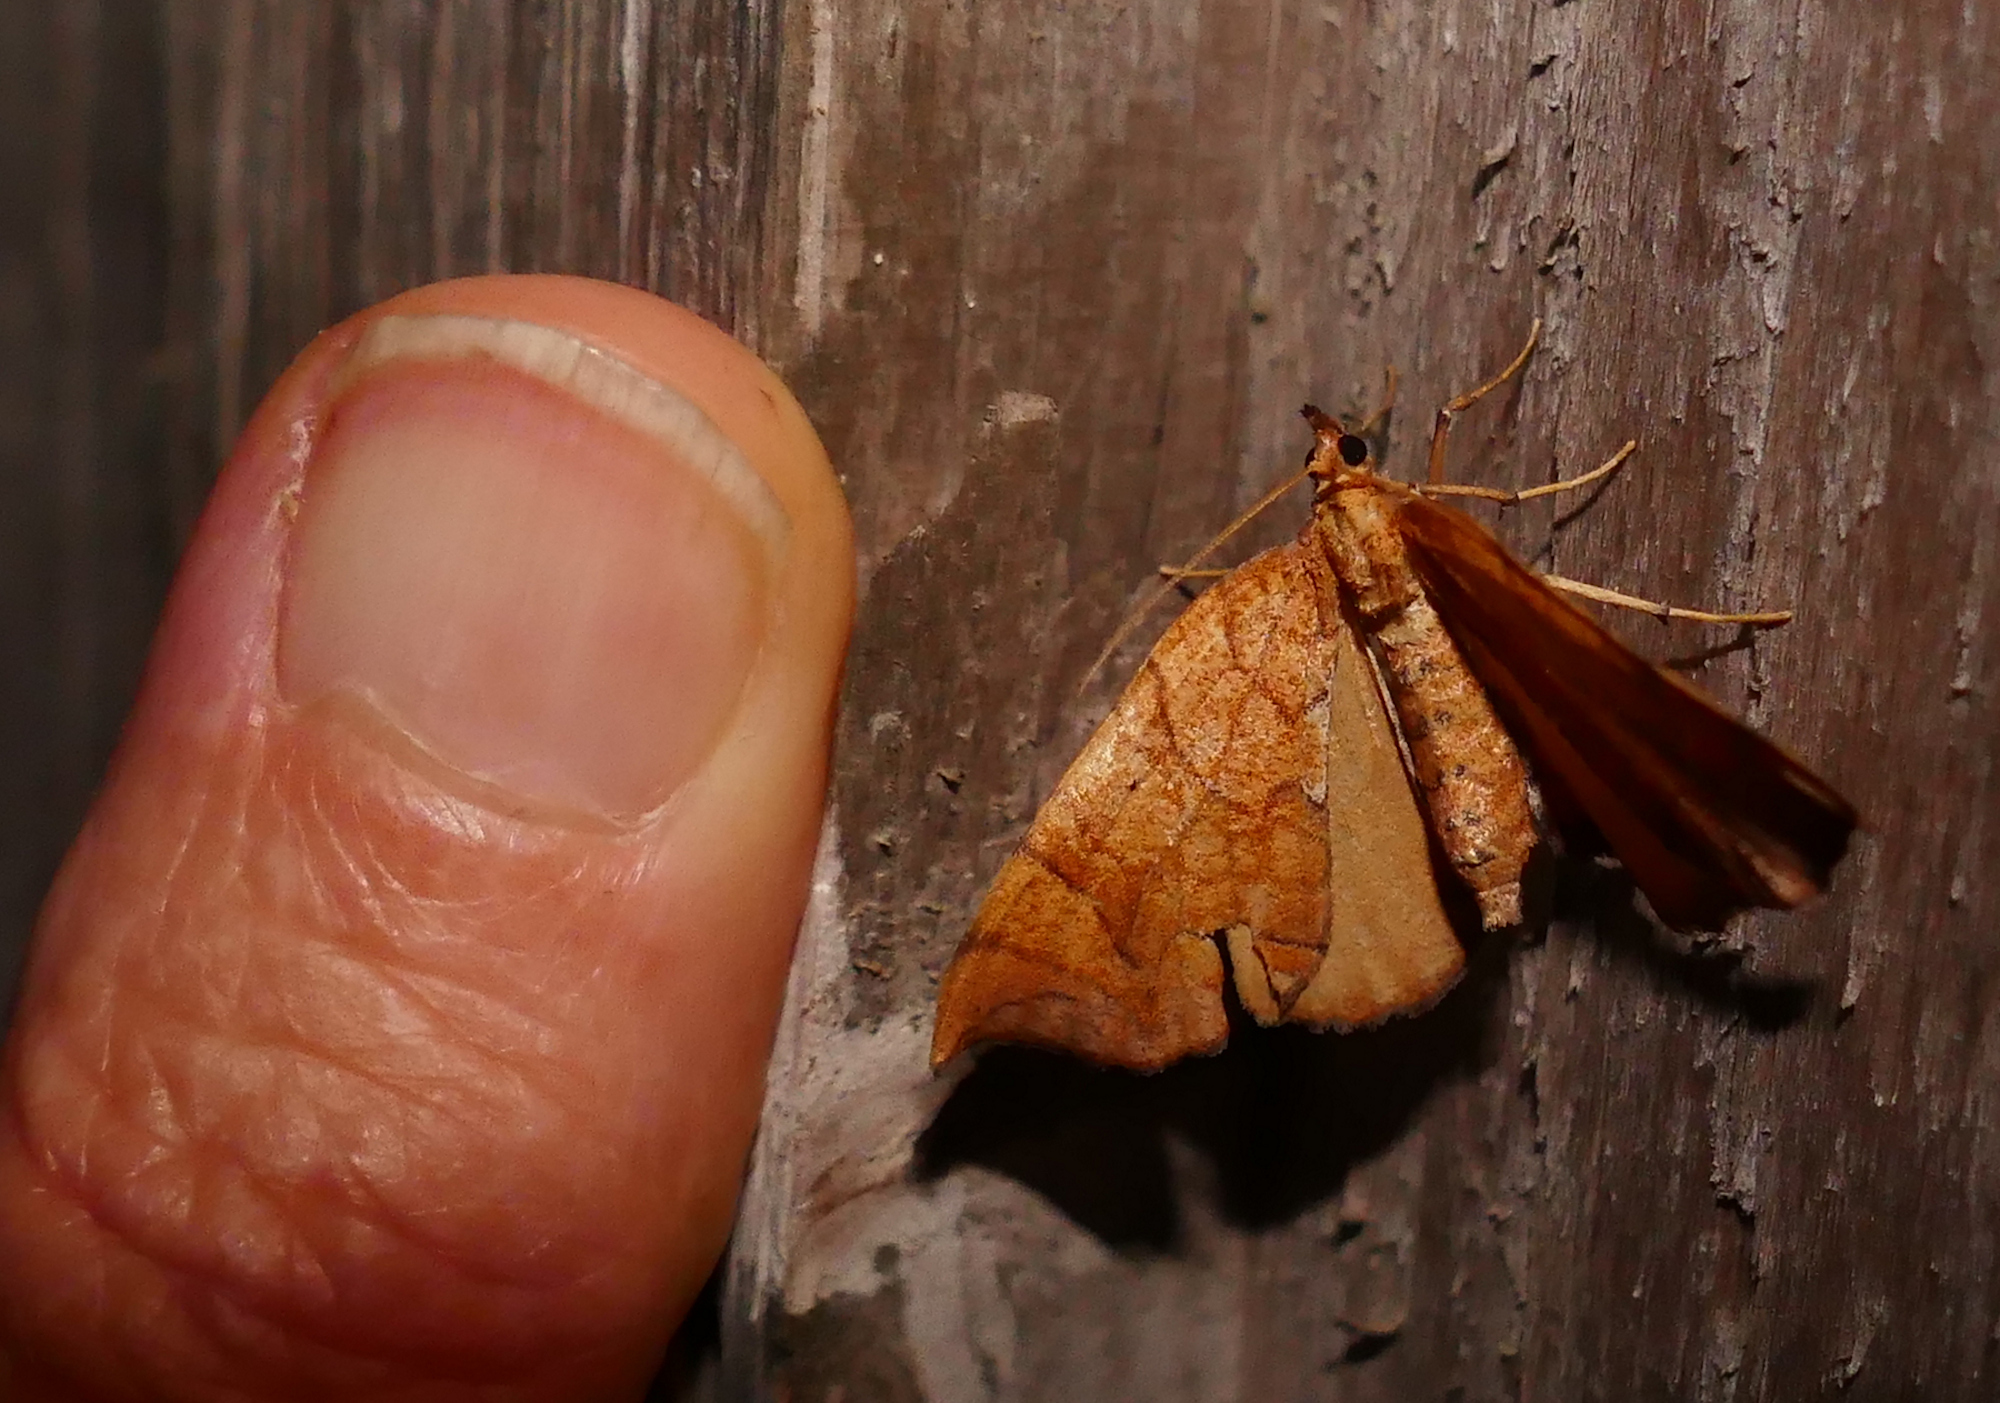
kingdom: Animalia
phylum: Arthropoda
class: Insecta
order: Lepidoptera
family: Geometridae
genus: Eulithis
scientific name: Eulithis
